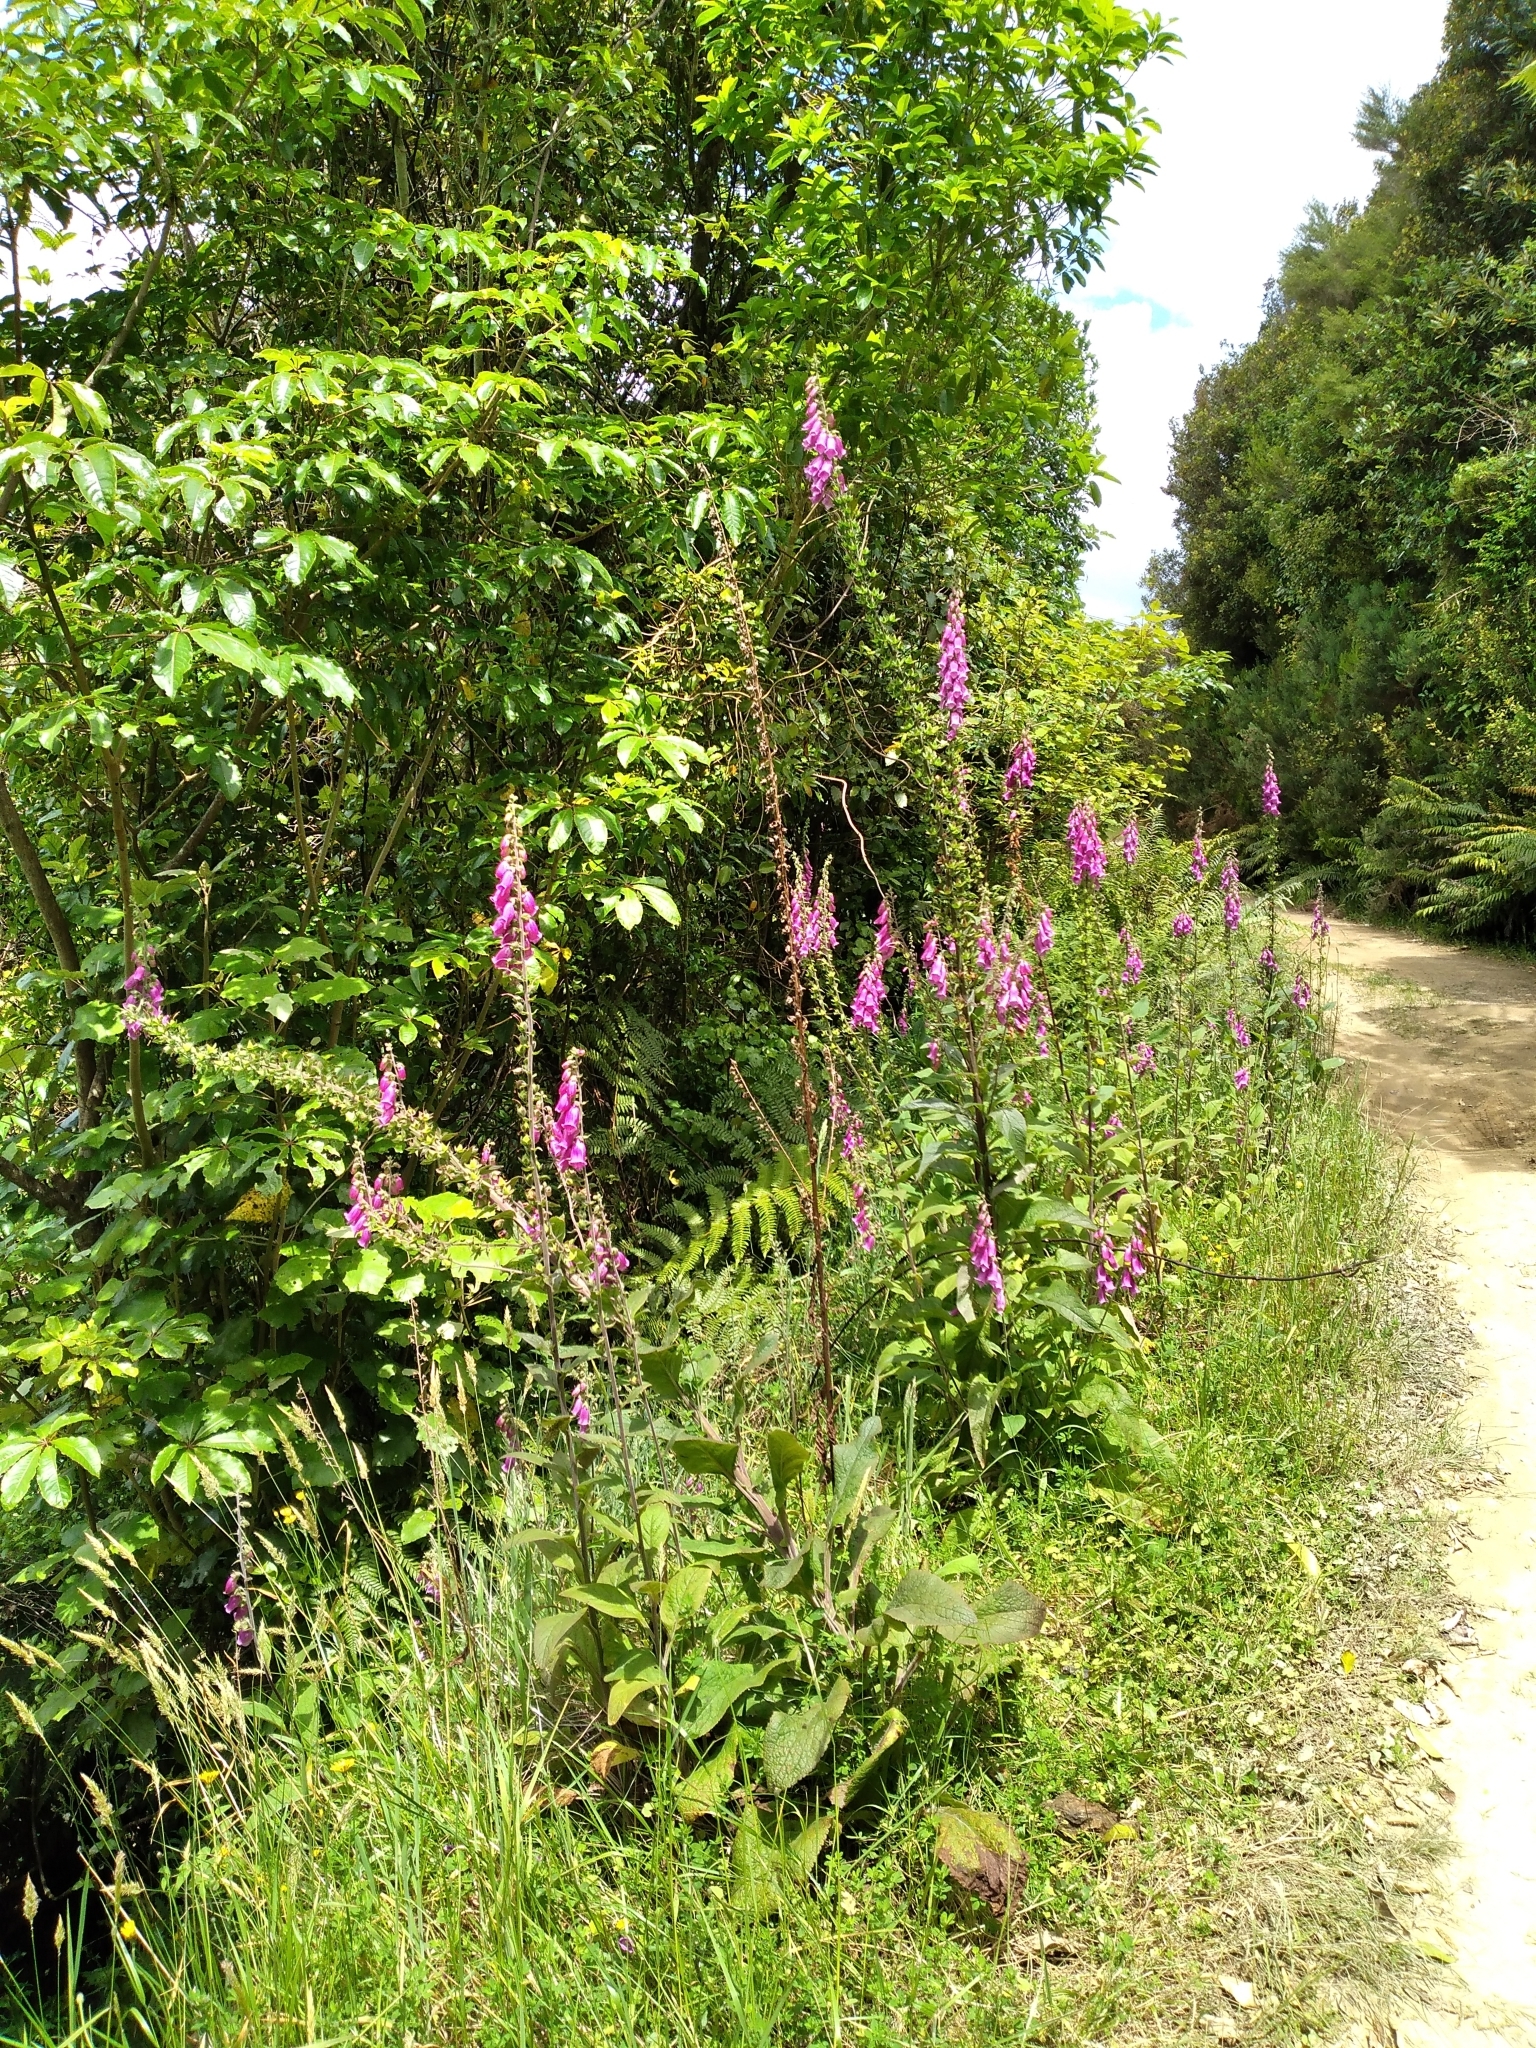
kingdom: Plantae
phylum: Tracheophyta
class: Magnoliopsida
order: Lamiales
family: Plantaginaceae
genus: Digitalis
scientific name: Digitalis purpurea
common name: Foxglove
